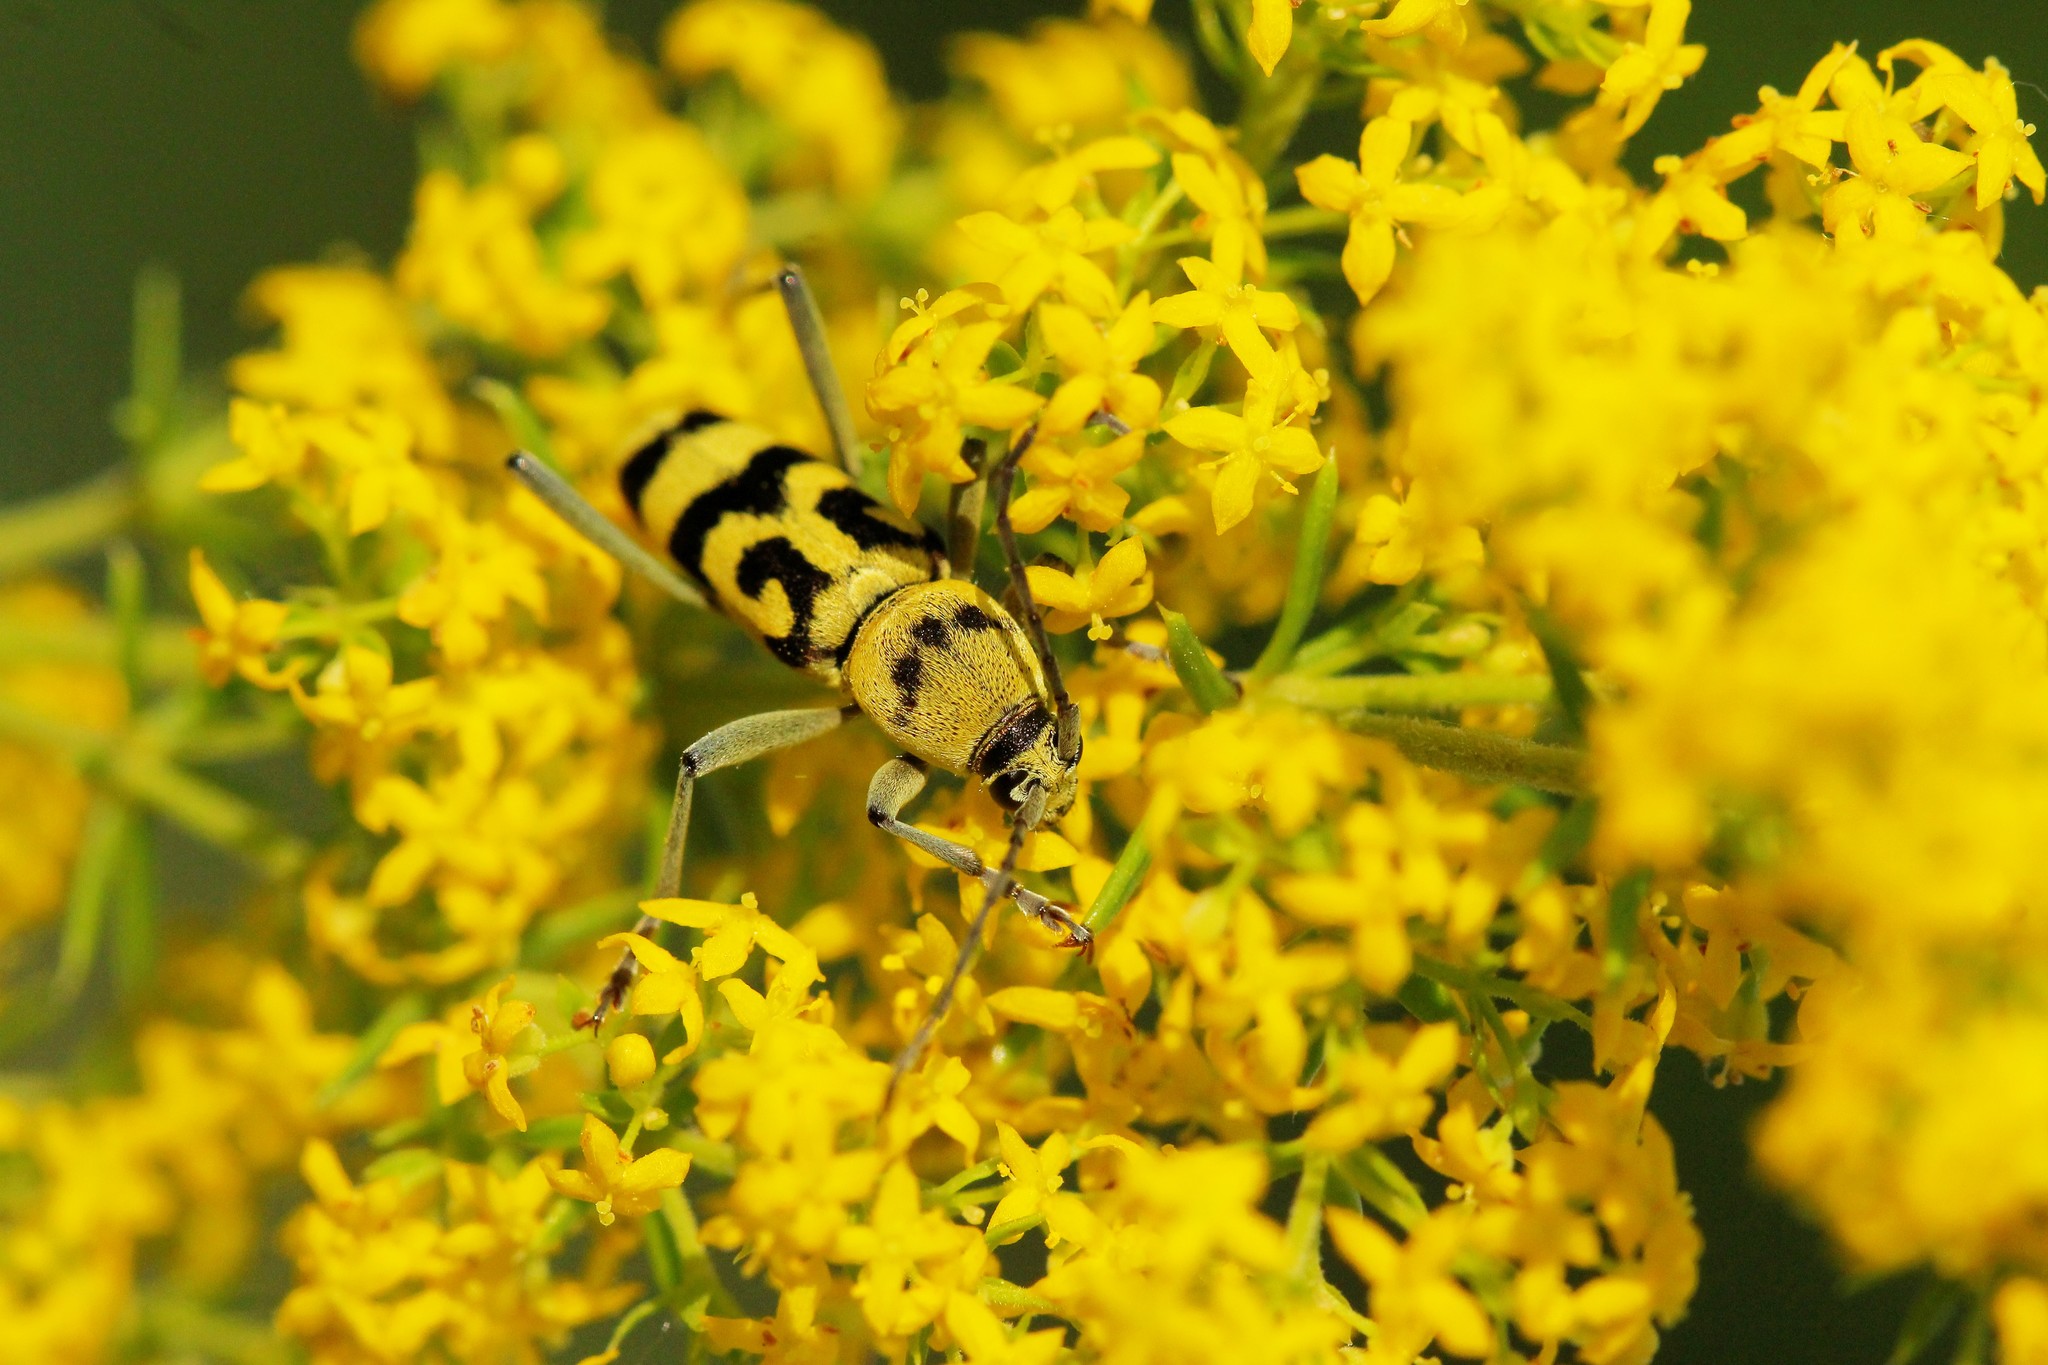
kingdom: Animalia
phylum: Arthropoda
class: Insecta
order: Coleoptera
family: Cerambycidae
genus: Chlorophorus
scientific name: Chlorophorus varius
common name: Grape wood borer
